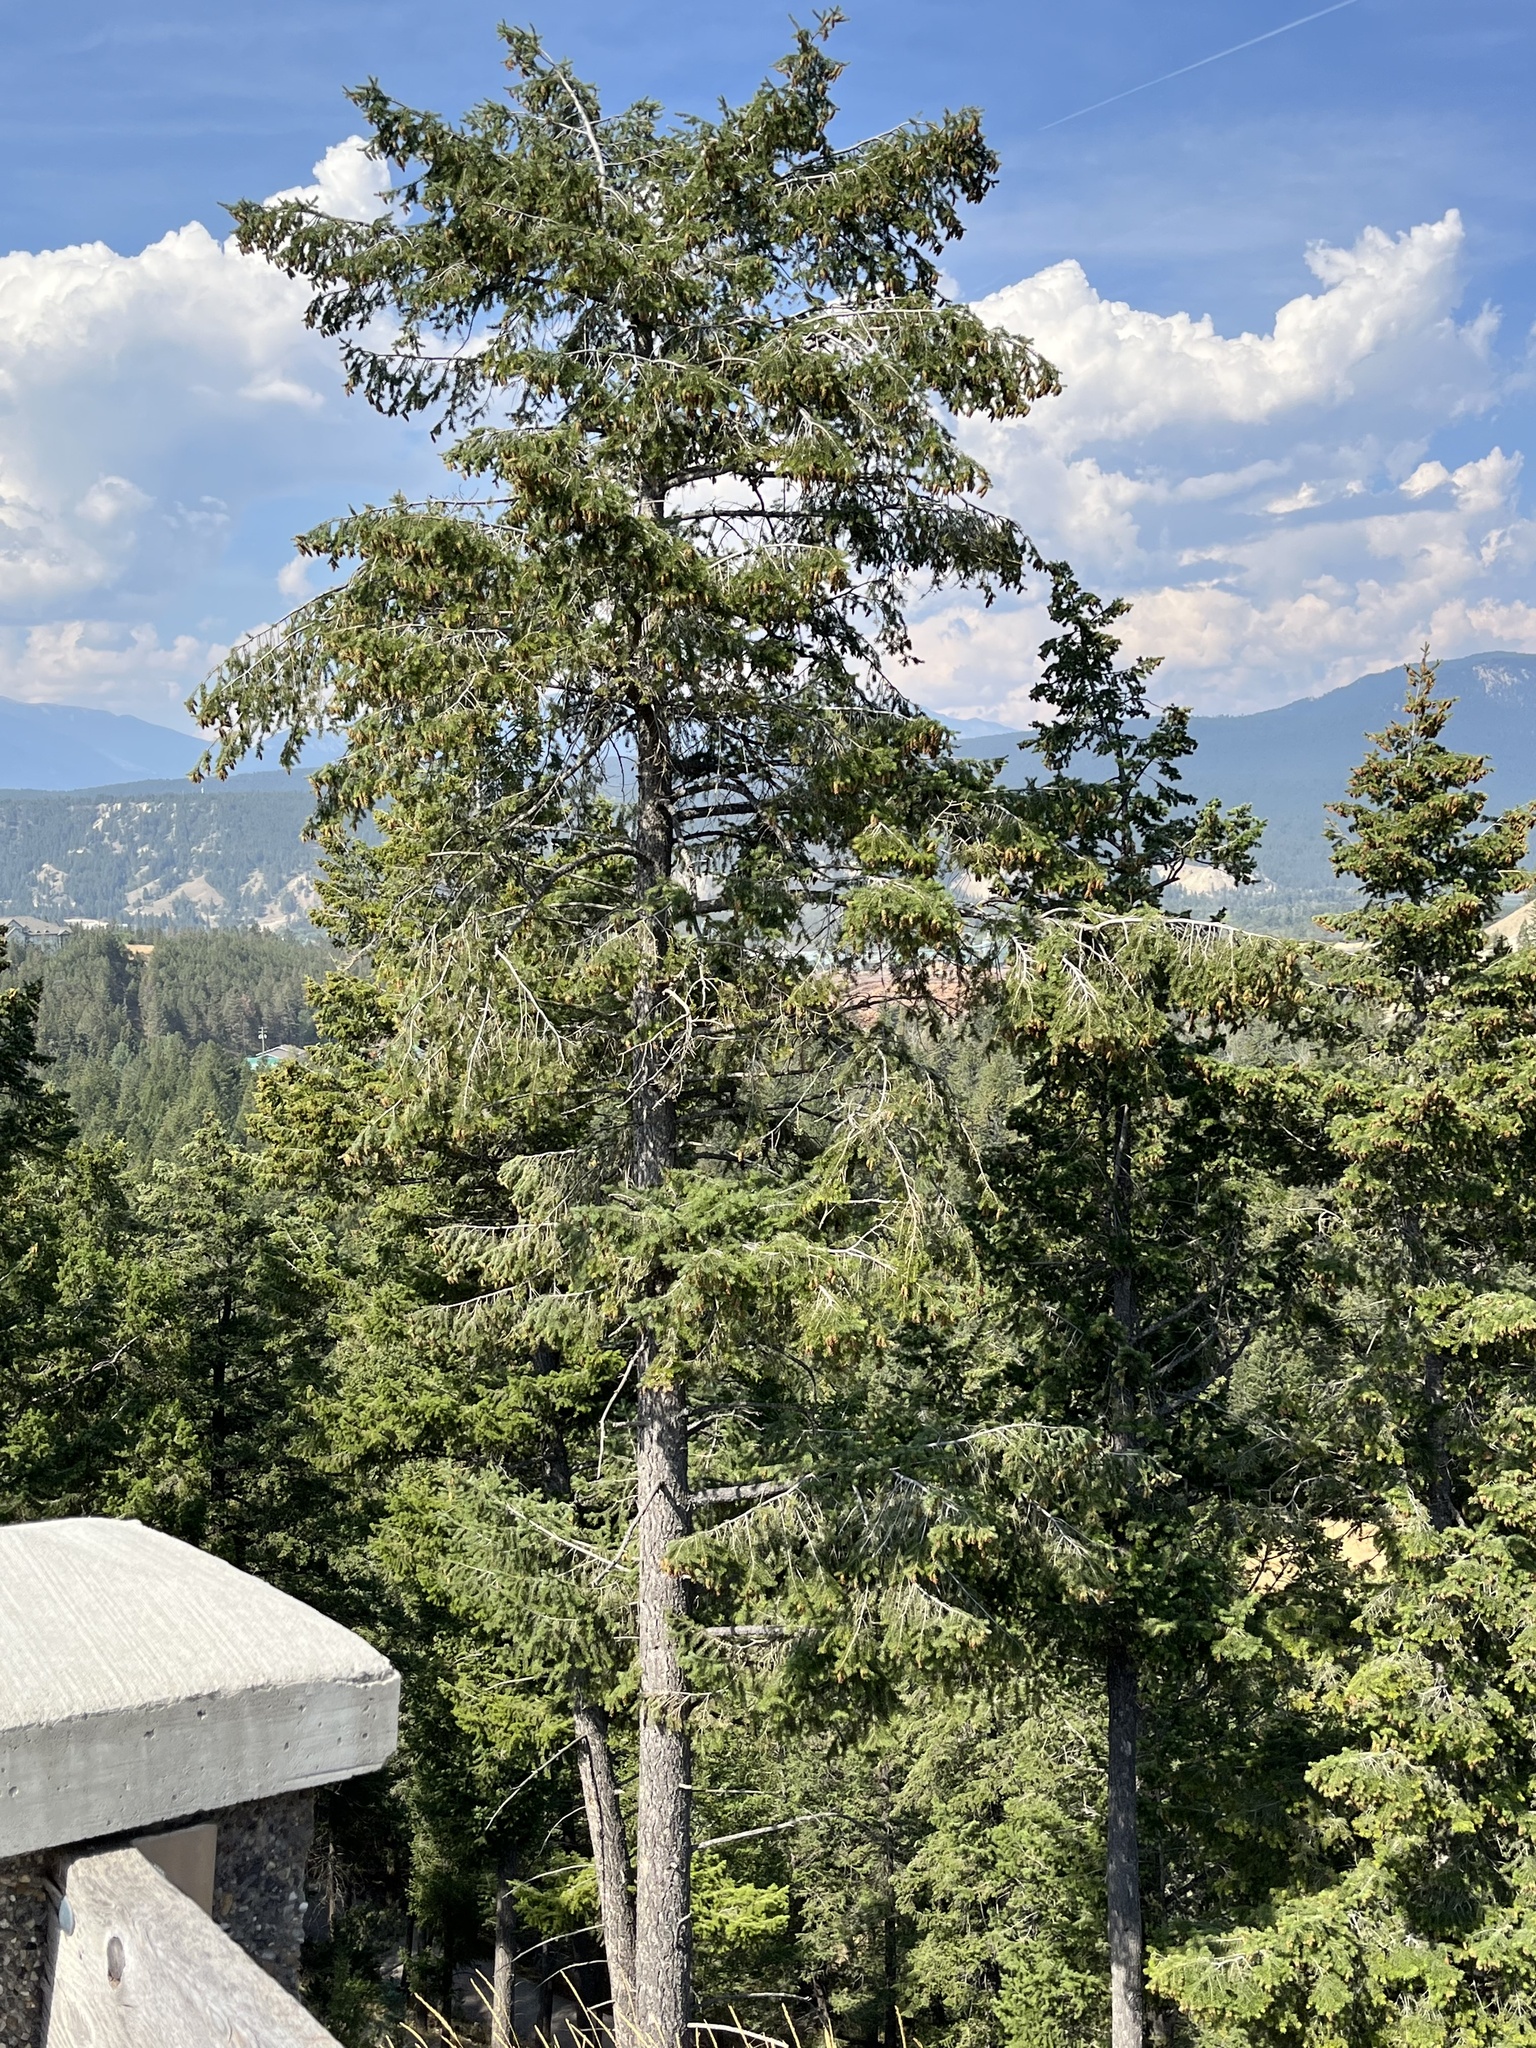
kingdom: Plantae
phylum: Tracheophyta
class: Pinopsida
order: Pinales
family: Pinaceae
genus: Pseudotsuga
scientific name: Pseudotsuga menziesii
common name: Douglas fir
